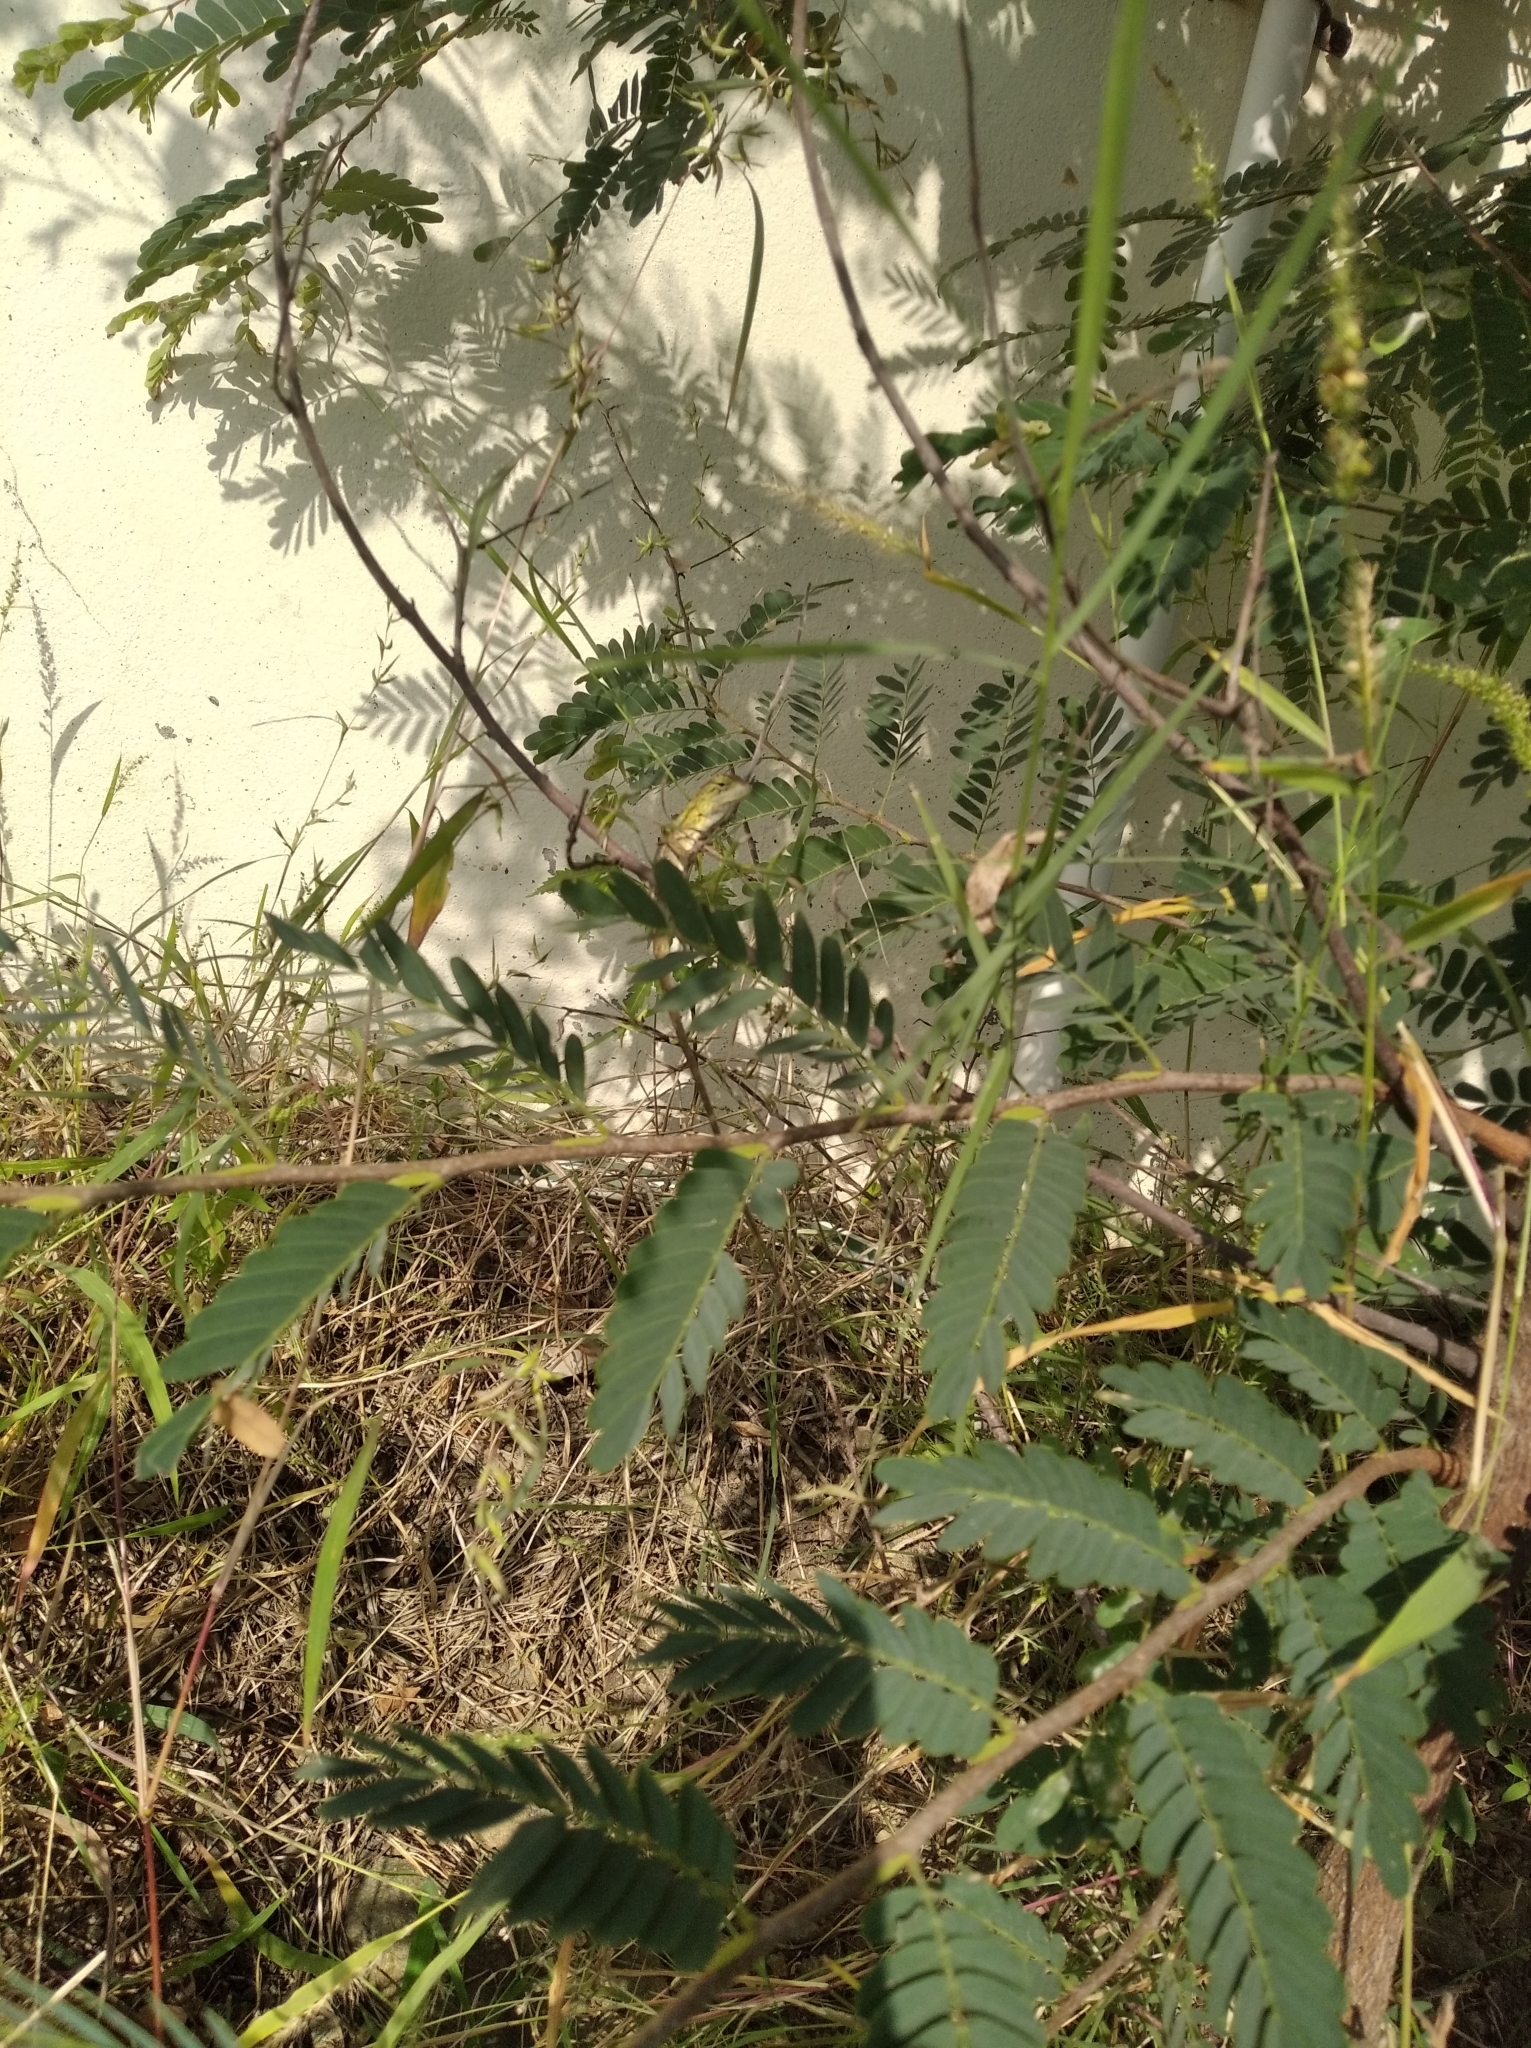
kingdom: Animalia
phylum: Chordata
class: Squamata
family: Agamidae
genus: Calotes
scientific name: Calotes versicolor
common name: Oriental garden lizard
